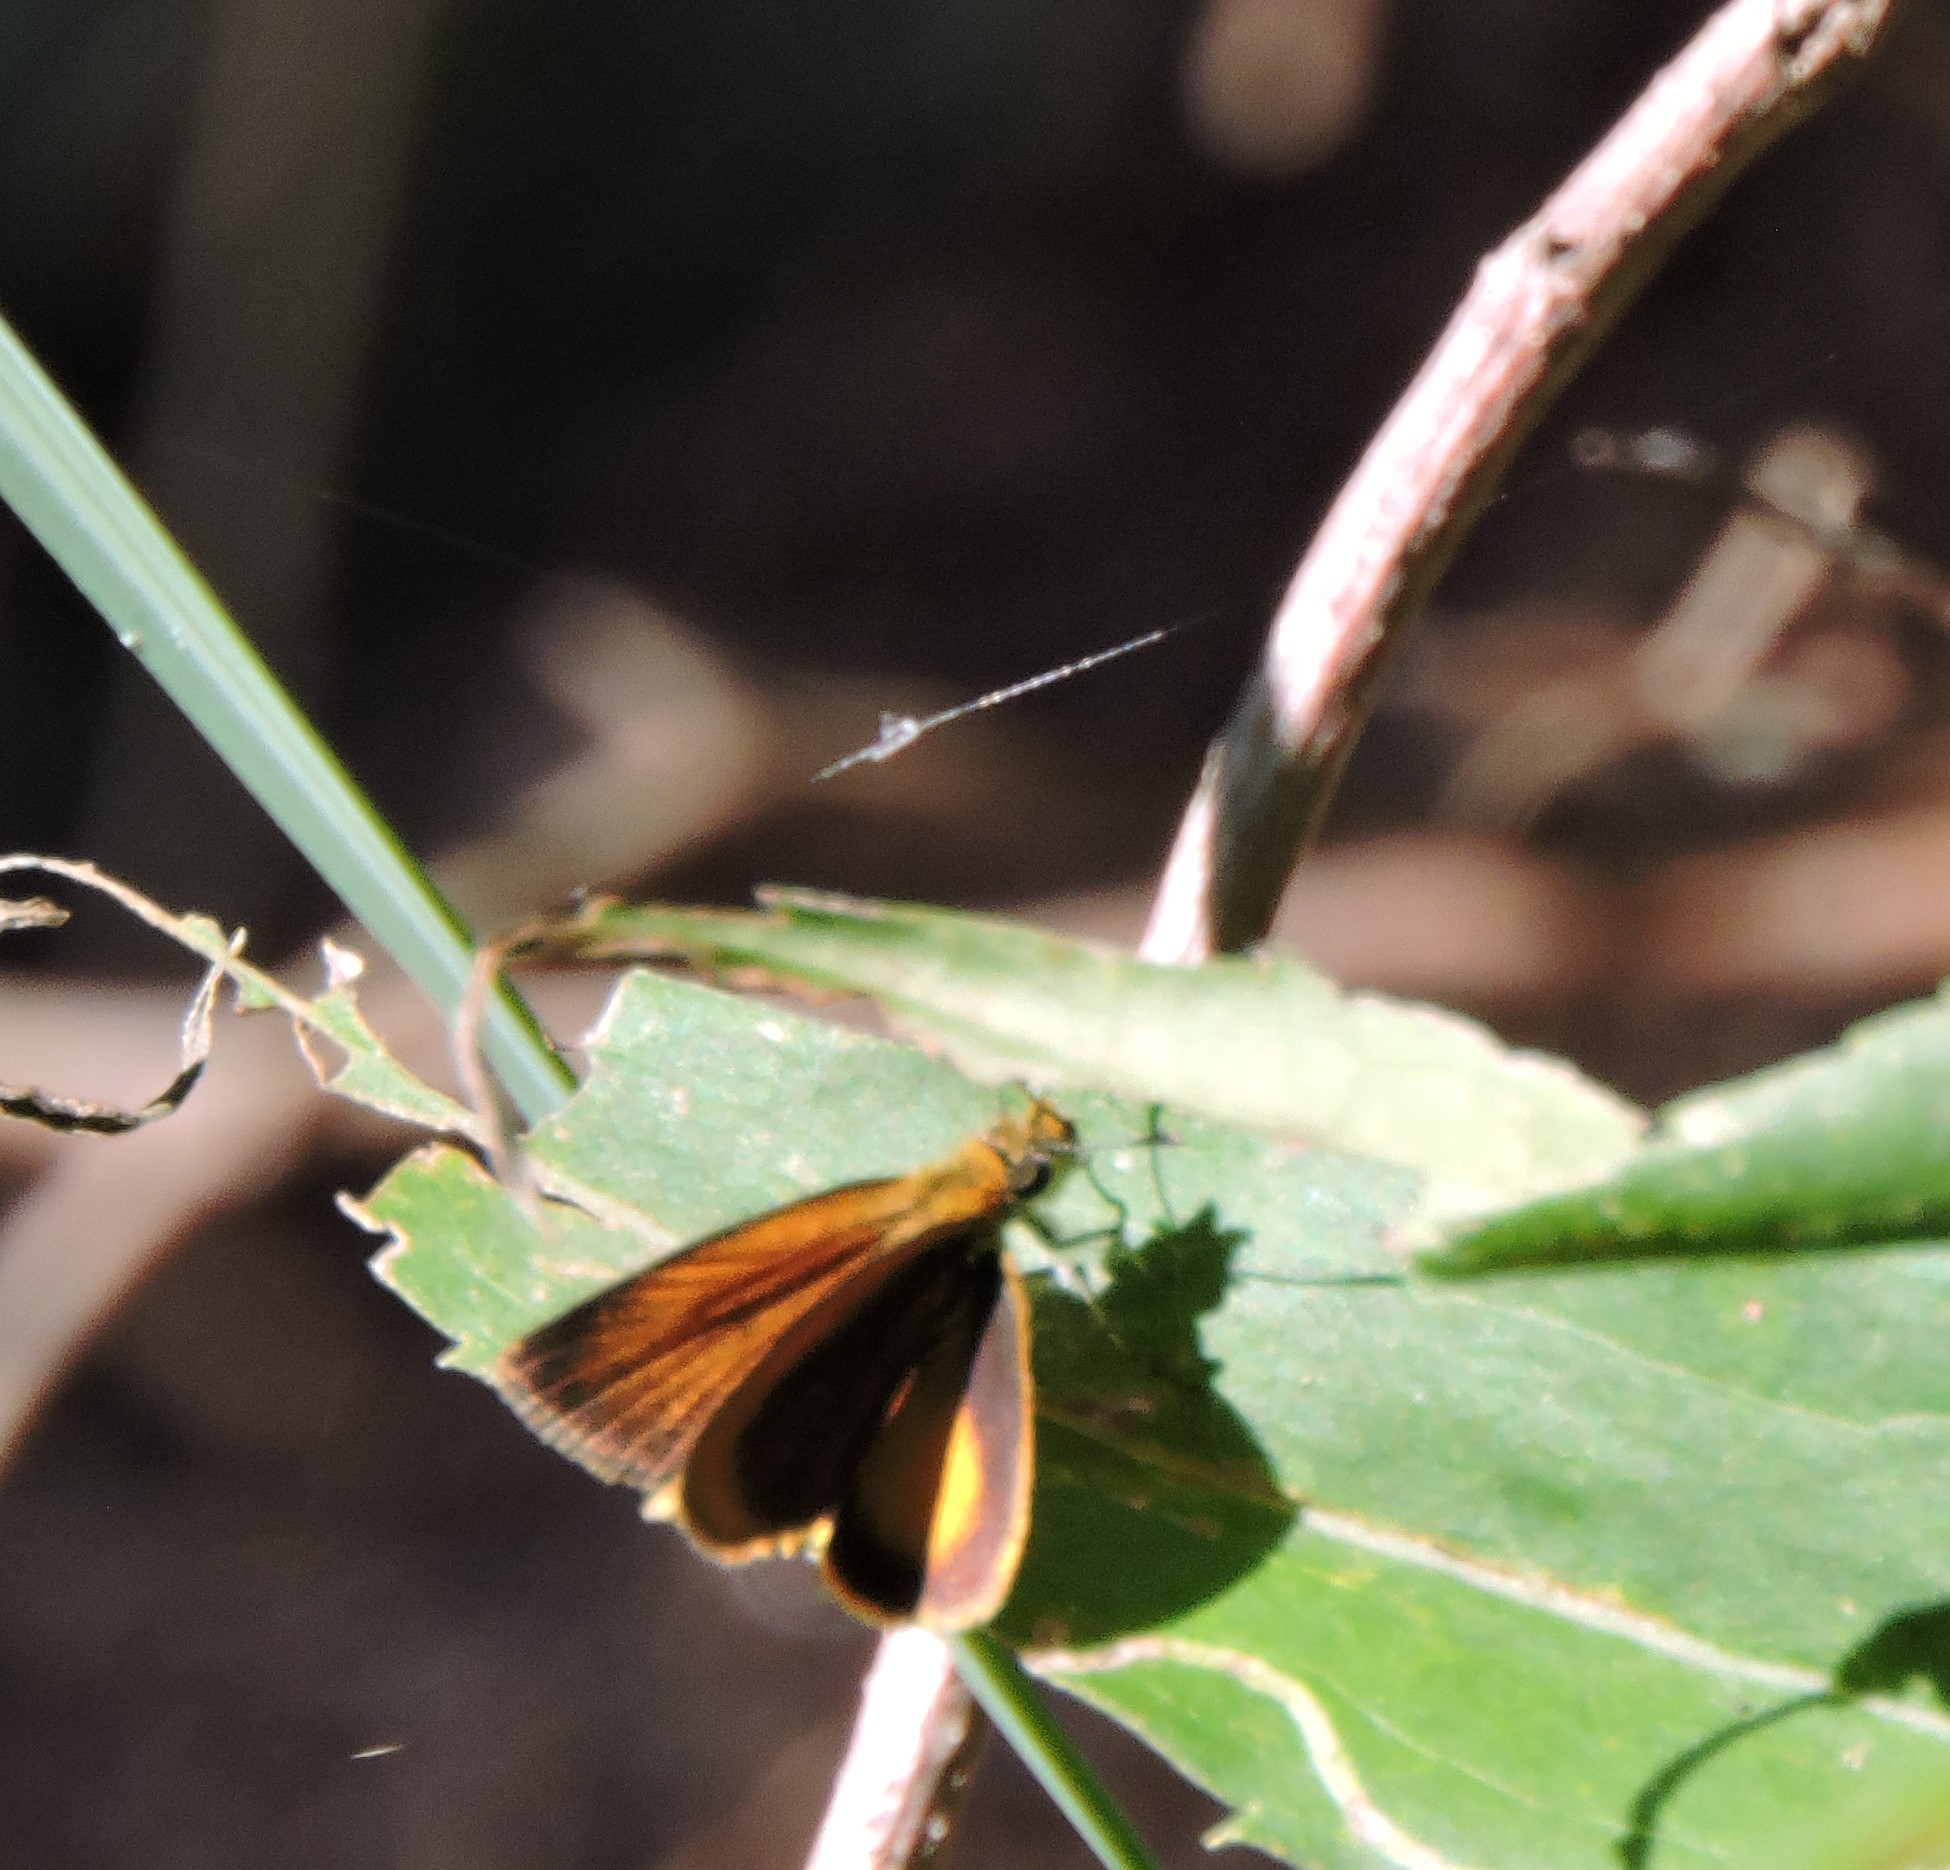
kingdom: Animalia
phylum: Arthropoda
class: Insecta
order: Lepidoptera
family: Hesperiidae
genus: Ancyloxypha
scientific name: Ancyloxypha numitor
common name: Least skipper
